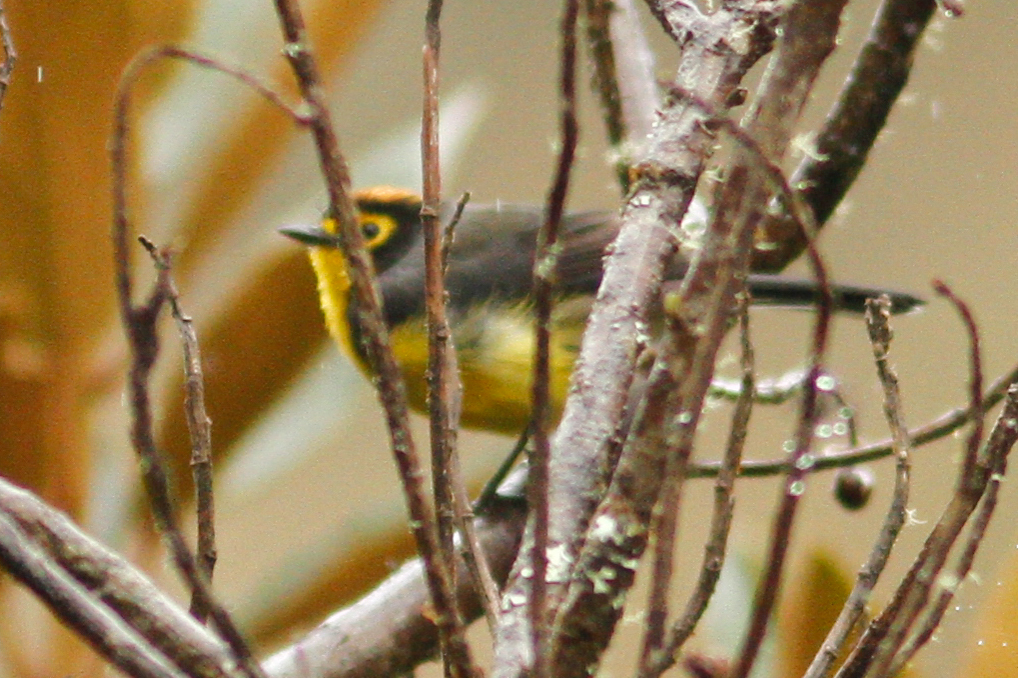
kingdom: Animalia
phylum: Chordata
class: Aves
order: Passeriformes
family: Parulidae
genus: Myioborus
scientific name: Myioborus melanocephalus
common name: Spectacled whitestart
